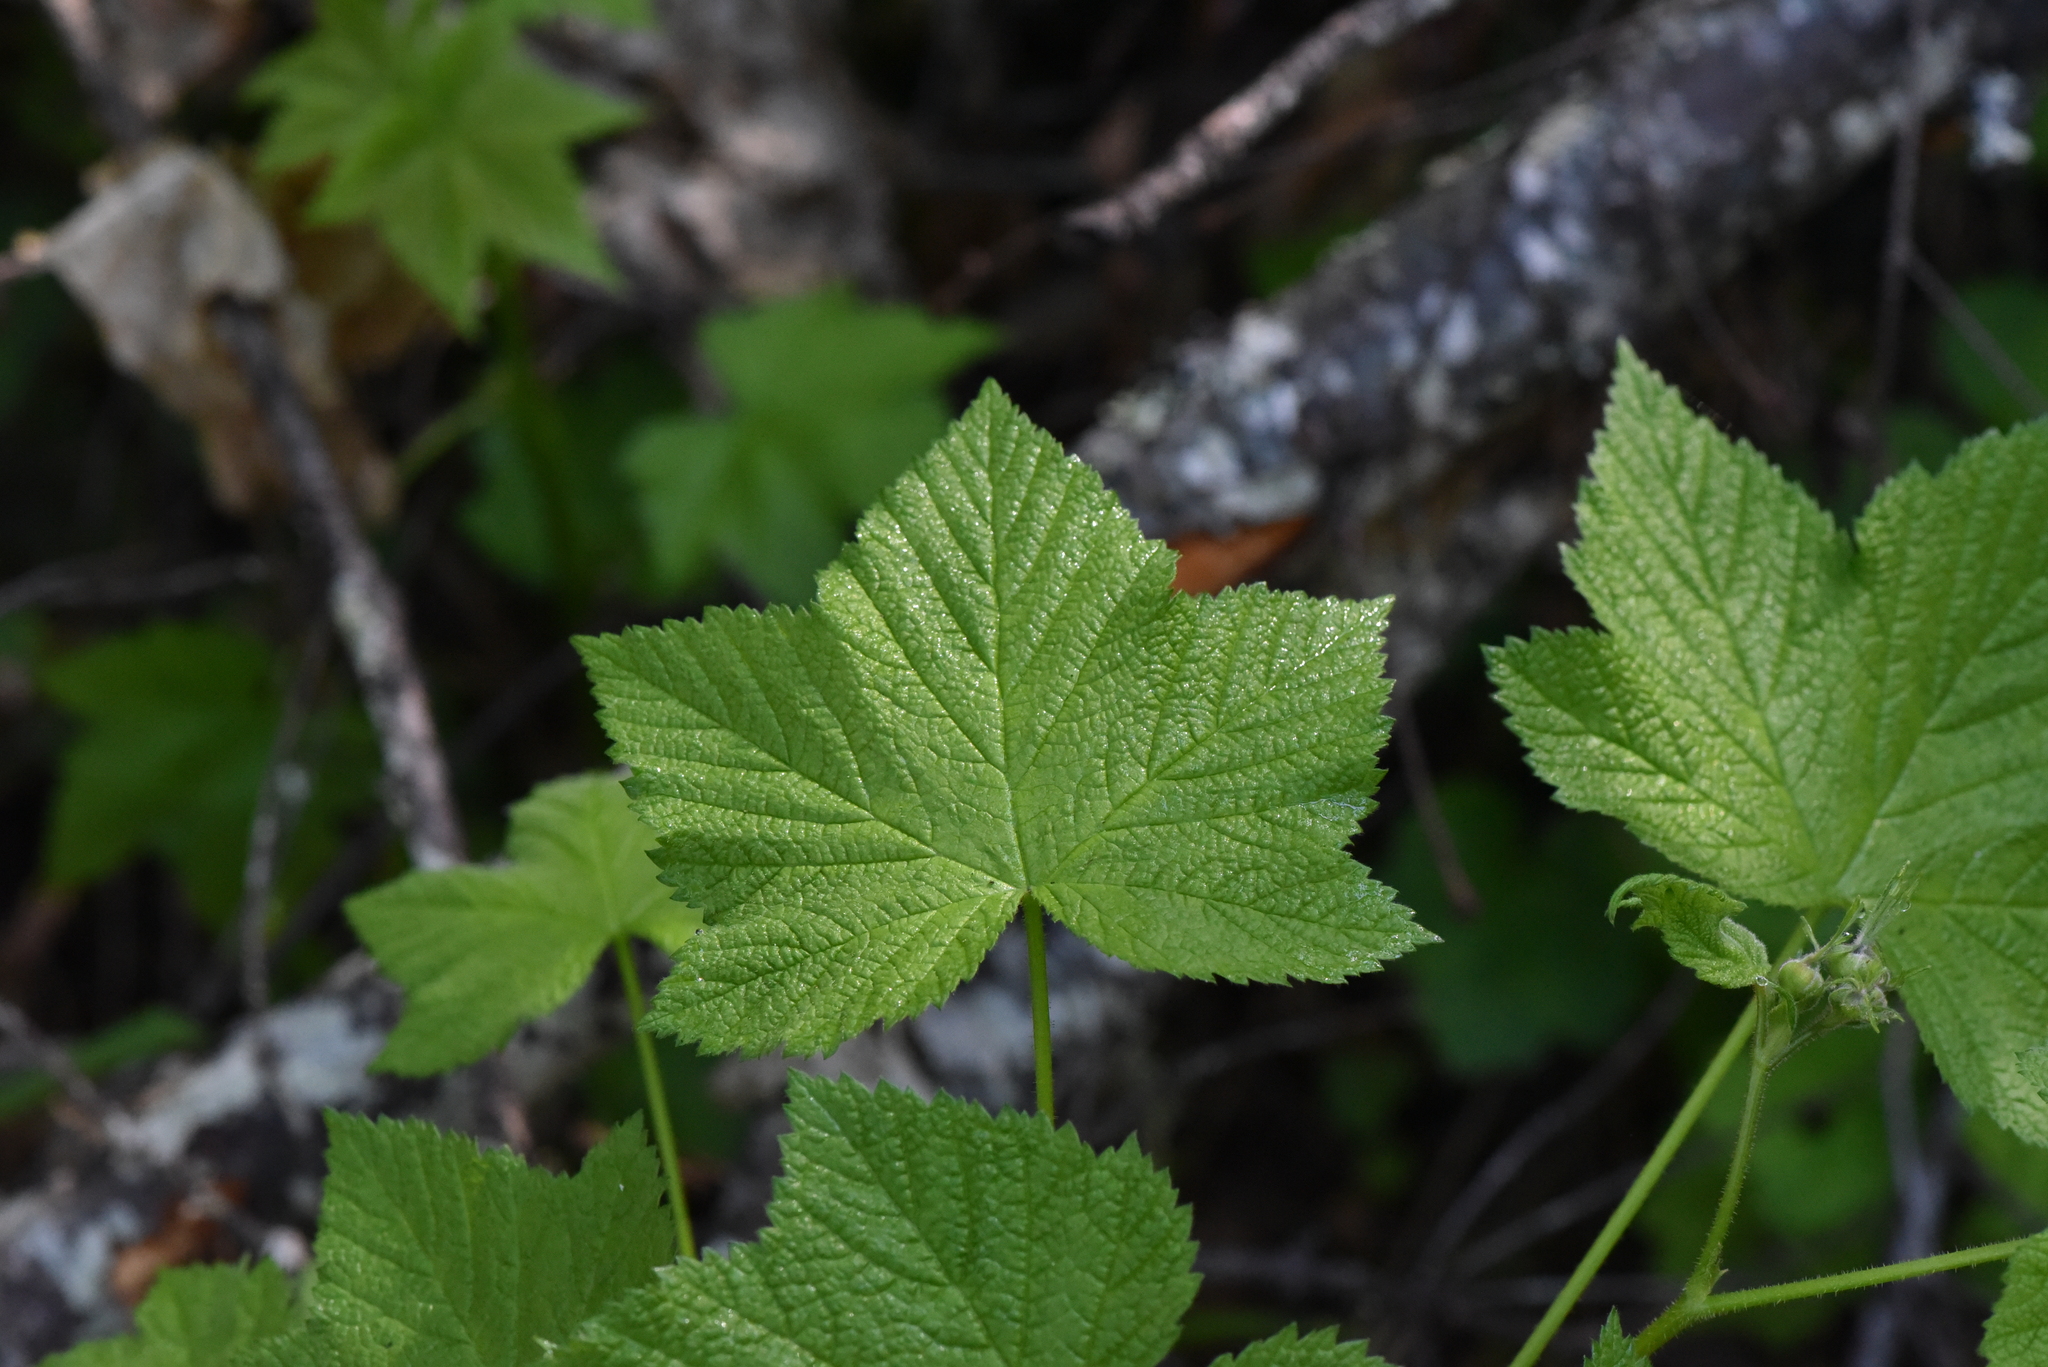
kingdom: Plantae
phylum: Tracheophyta
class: Magnoliopsida
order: Rosales
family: Rosaceae
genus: Rubus
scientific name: Rubus parviflorus
